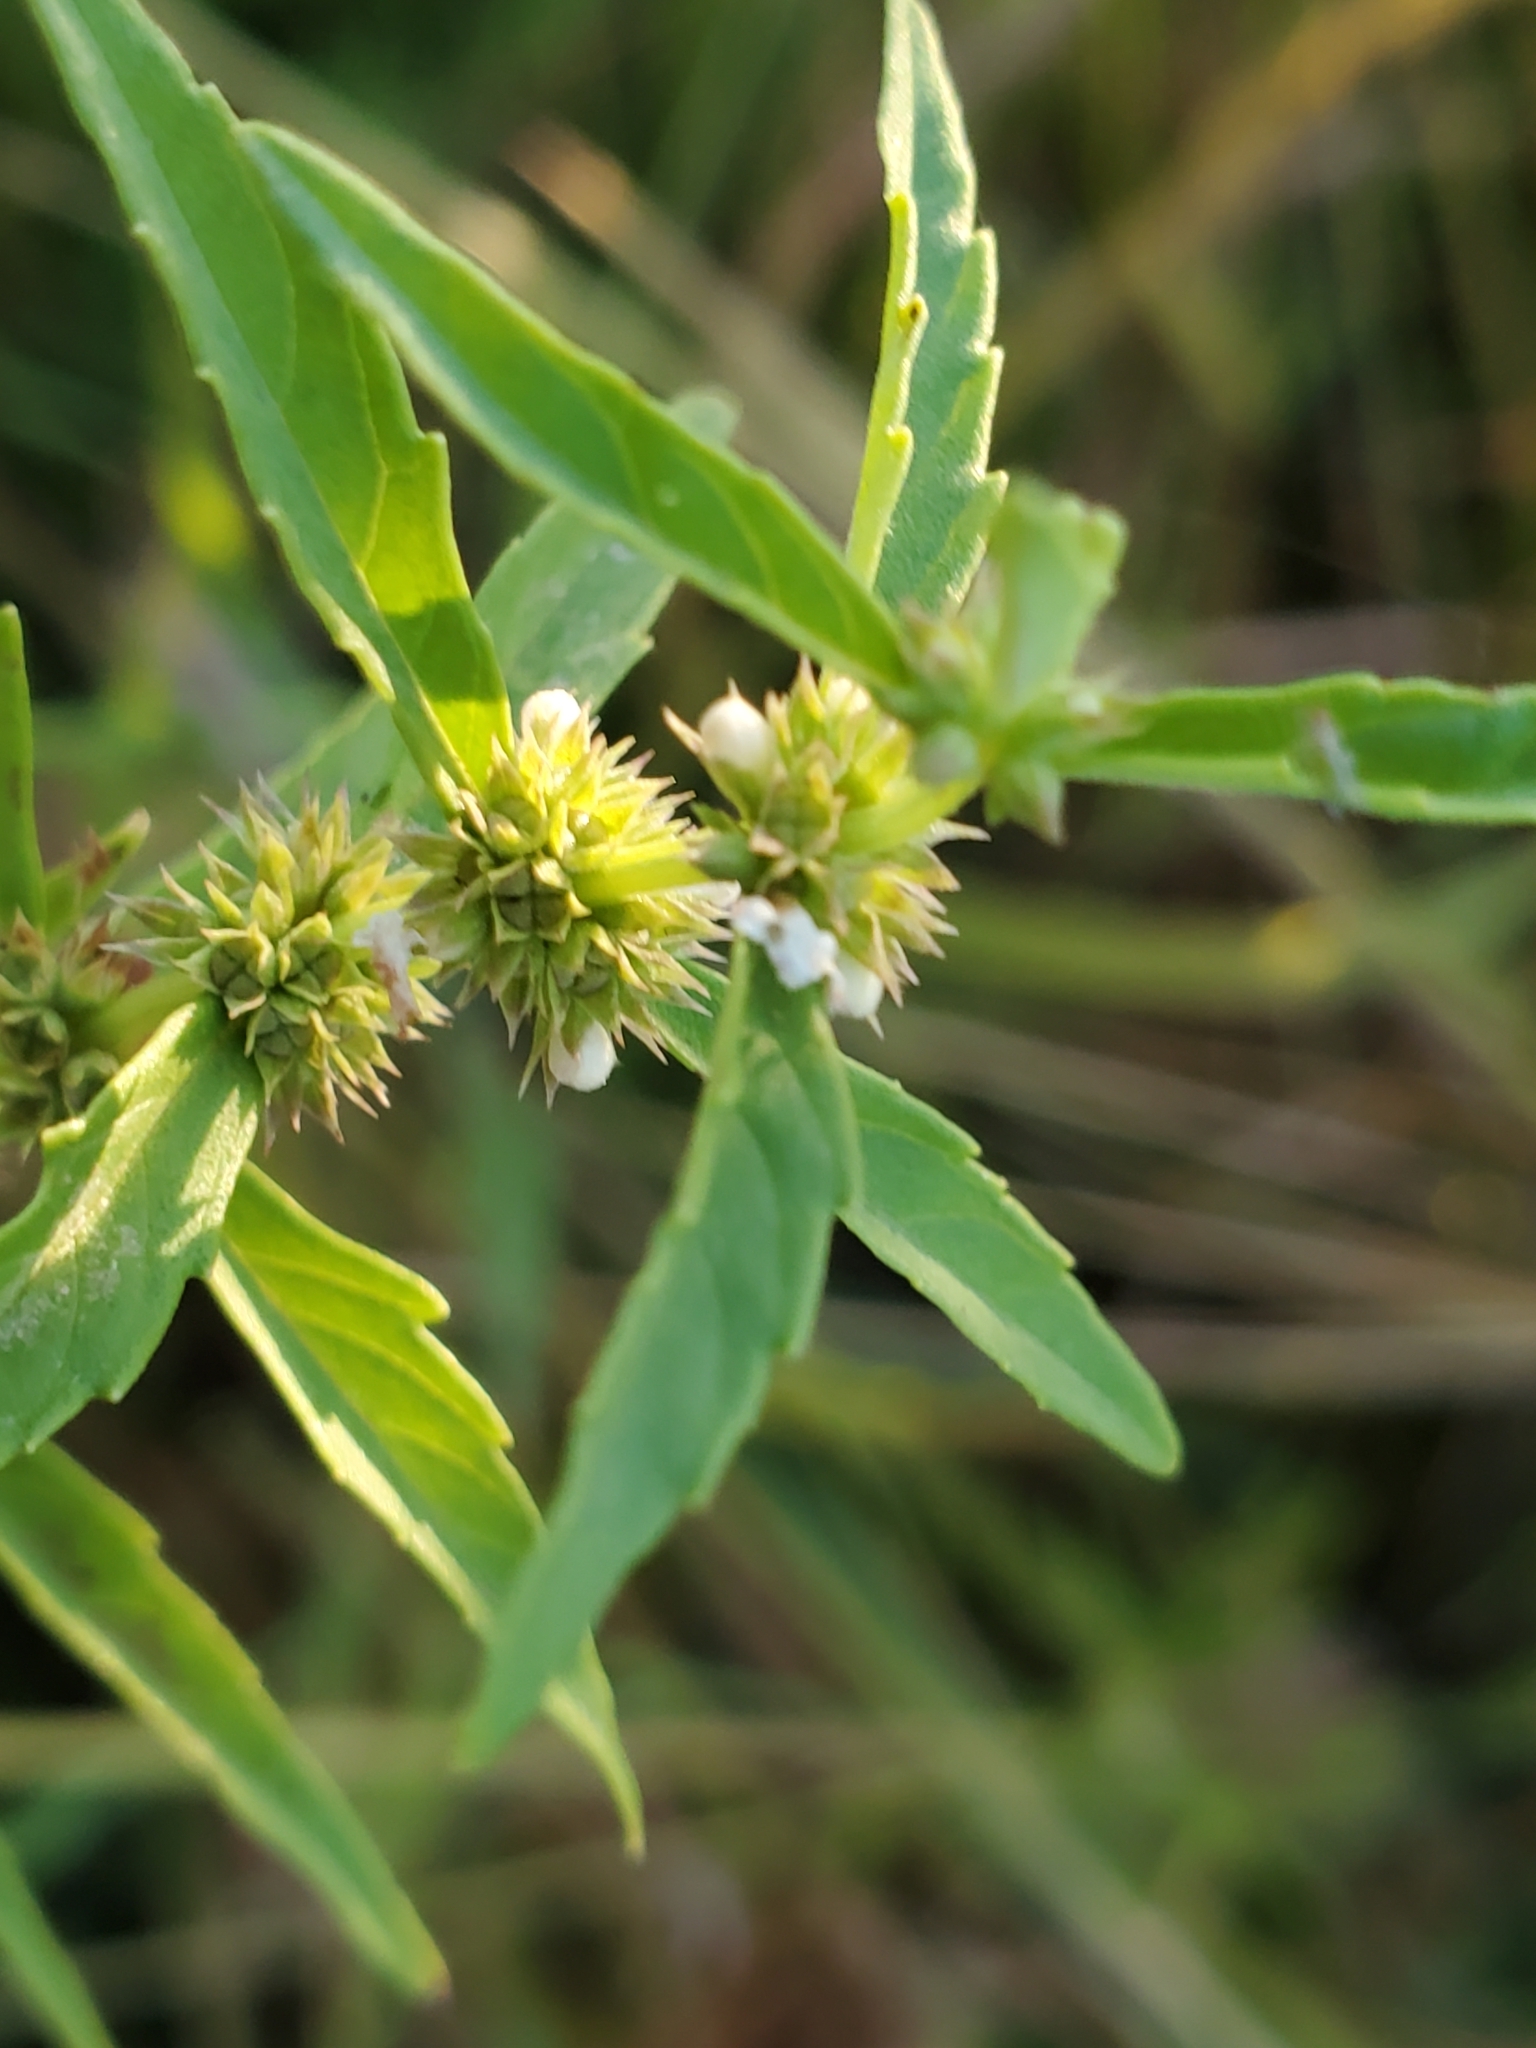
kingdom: Plantae
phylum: Tracheophyta
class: Magnoliopsida
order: Lamiales
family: Lamiaceae
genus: Lycopus
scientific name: Lycopus americanus
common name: American bugleweed
